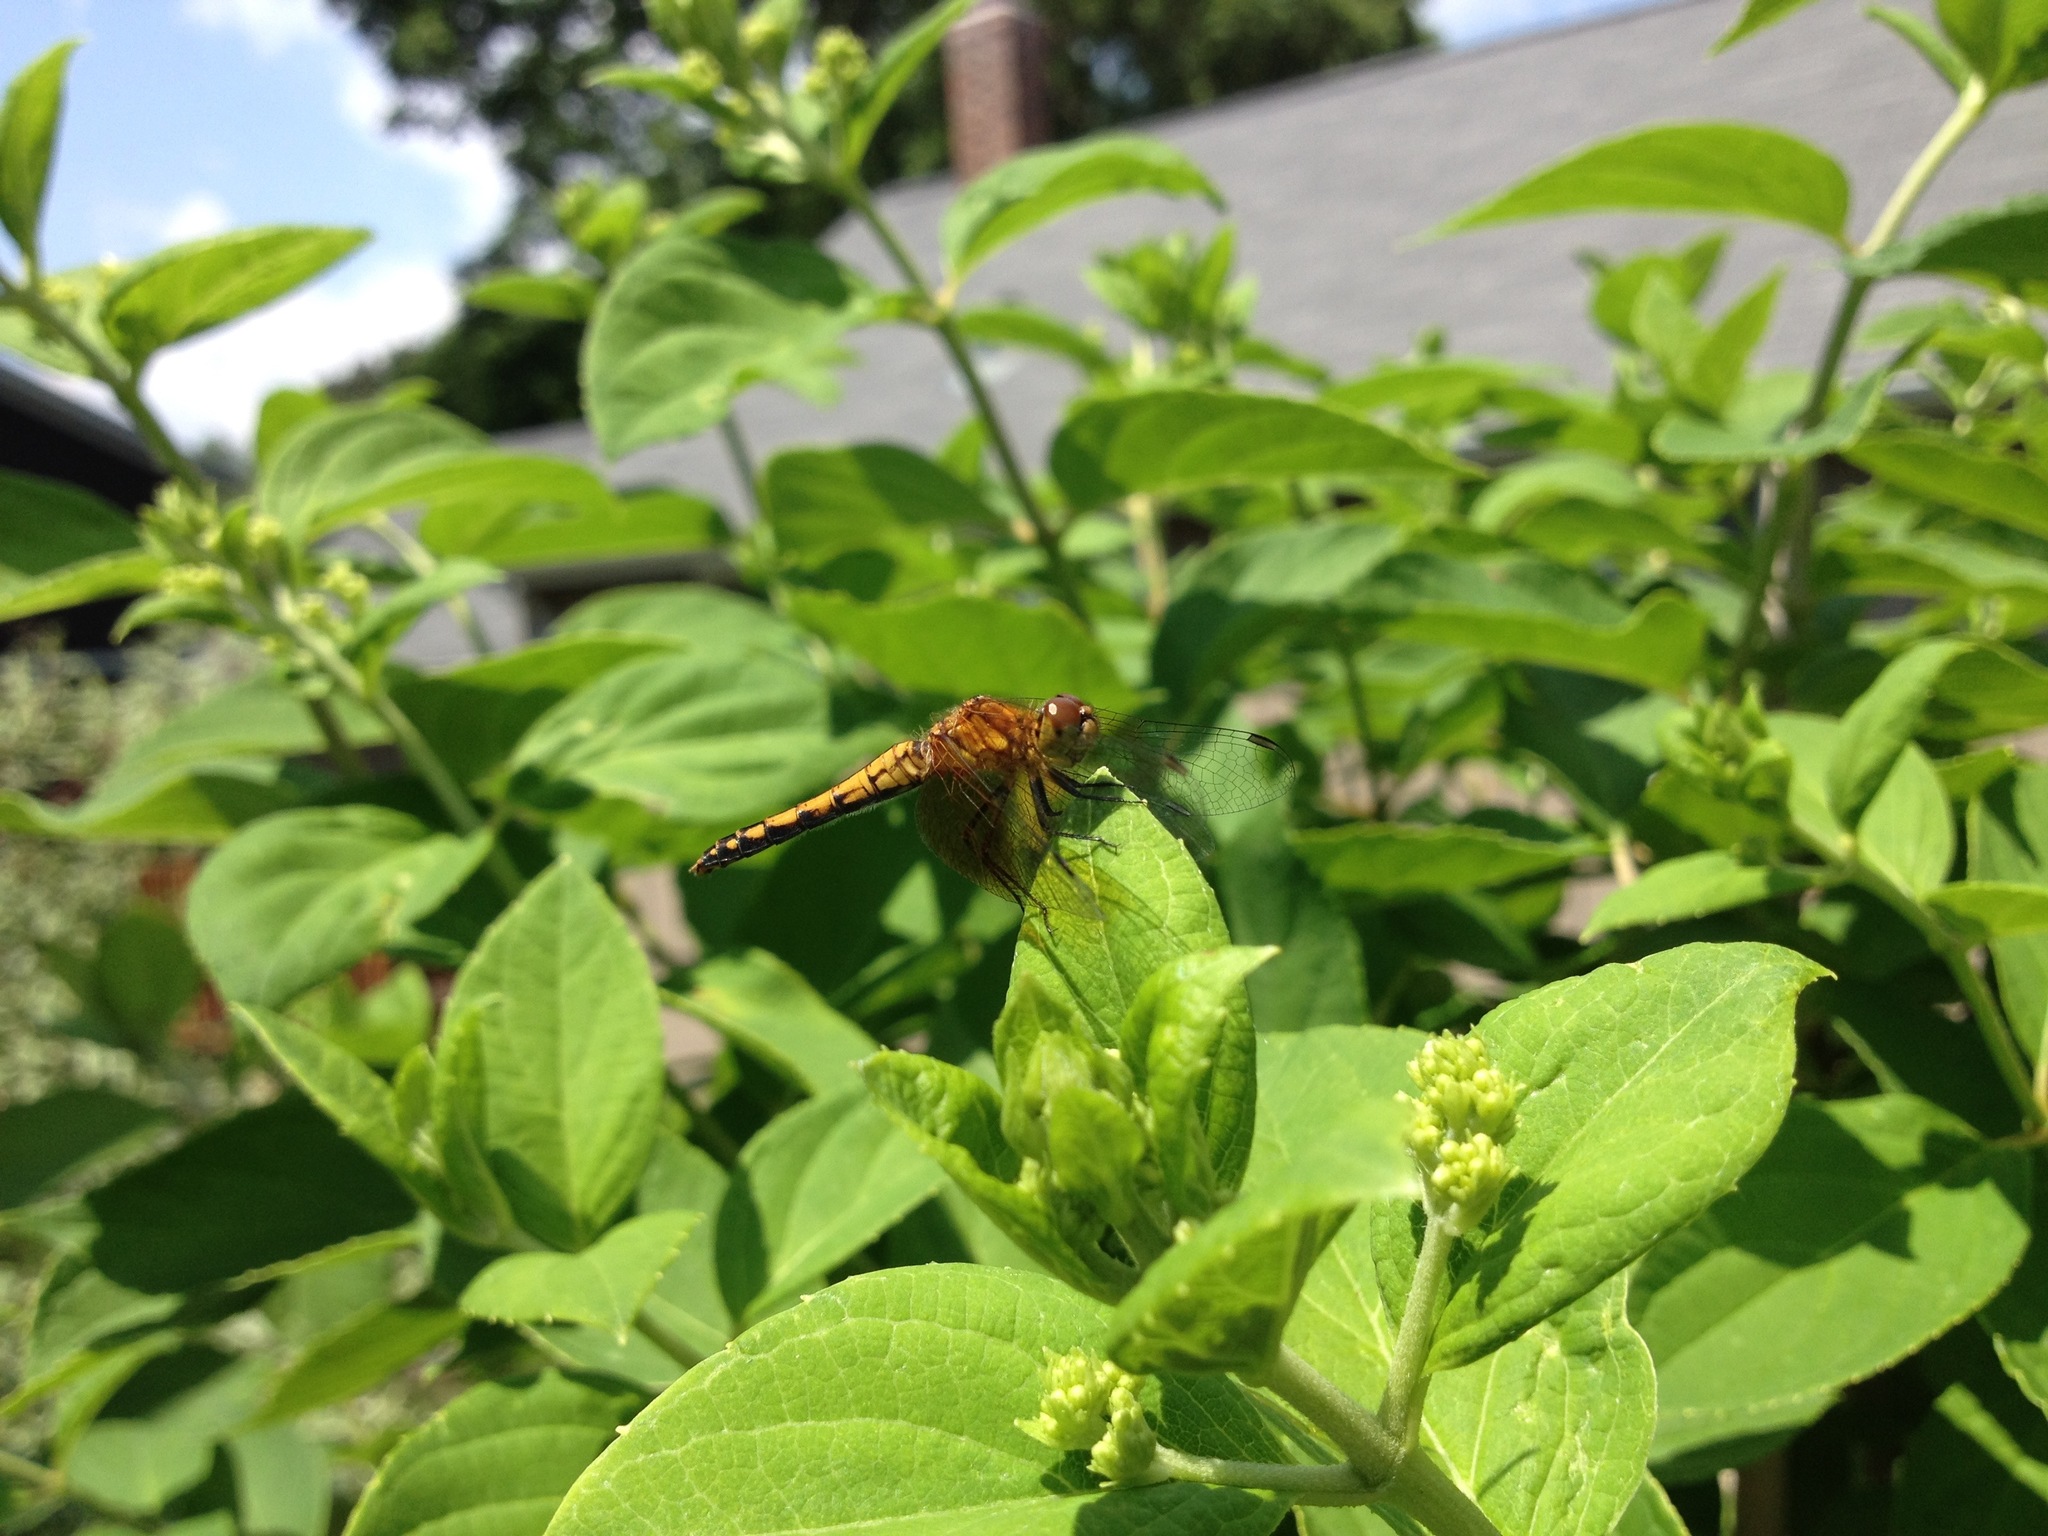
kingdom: Animalia
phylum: Arthropoda
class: Insecta
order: Odonata
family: Libellulidae
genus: Sympetrum
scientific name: Sympetrum semicinctum
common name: Band-winged meadowhawk
